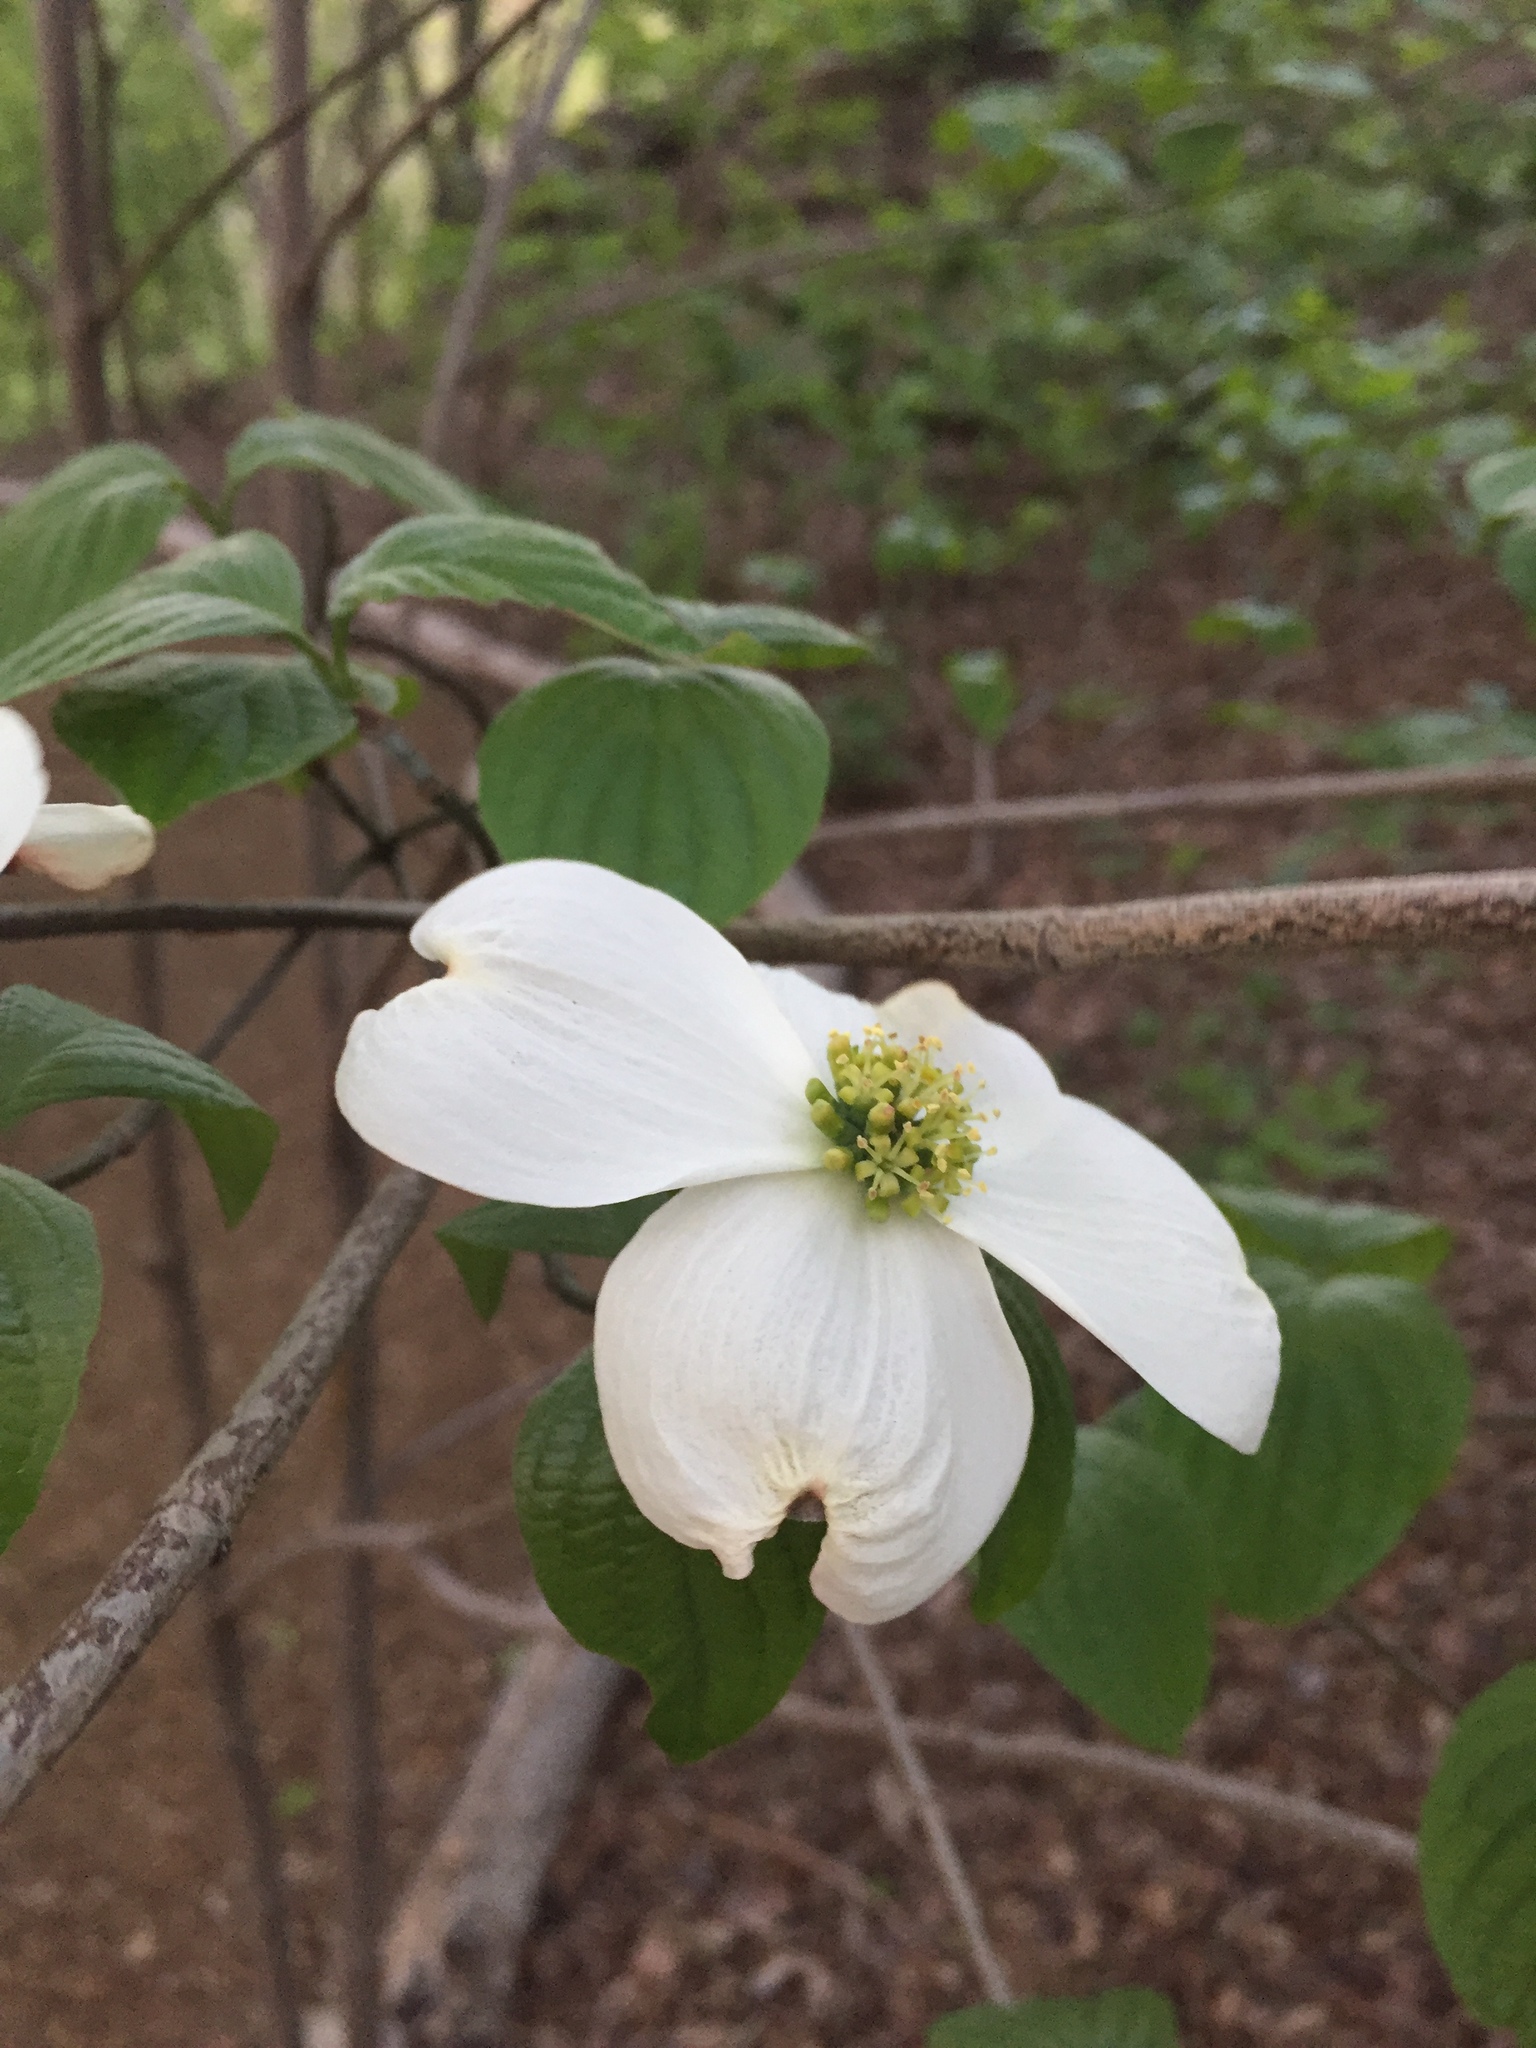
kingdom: Plantae
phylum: Tracheophyta
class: Magnoliopsida
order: Cornales
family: Cornaceae
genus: Cornus
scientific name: Cornus florida
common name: Flowering dogwood
